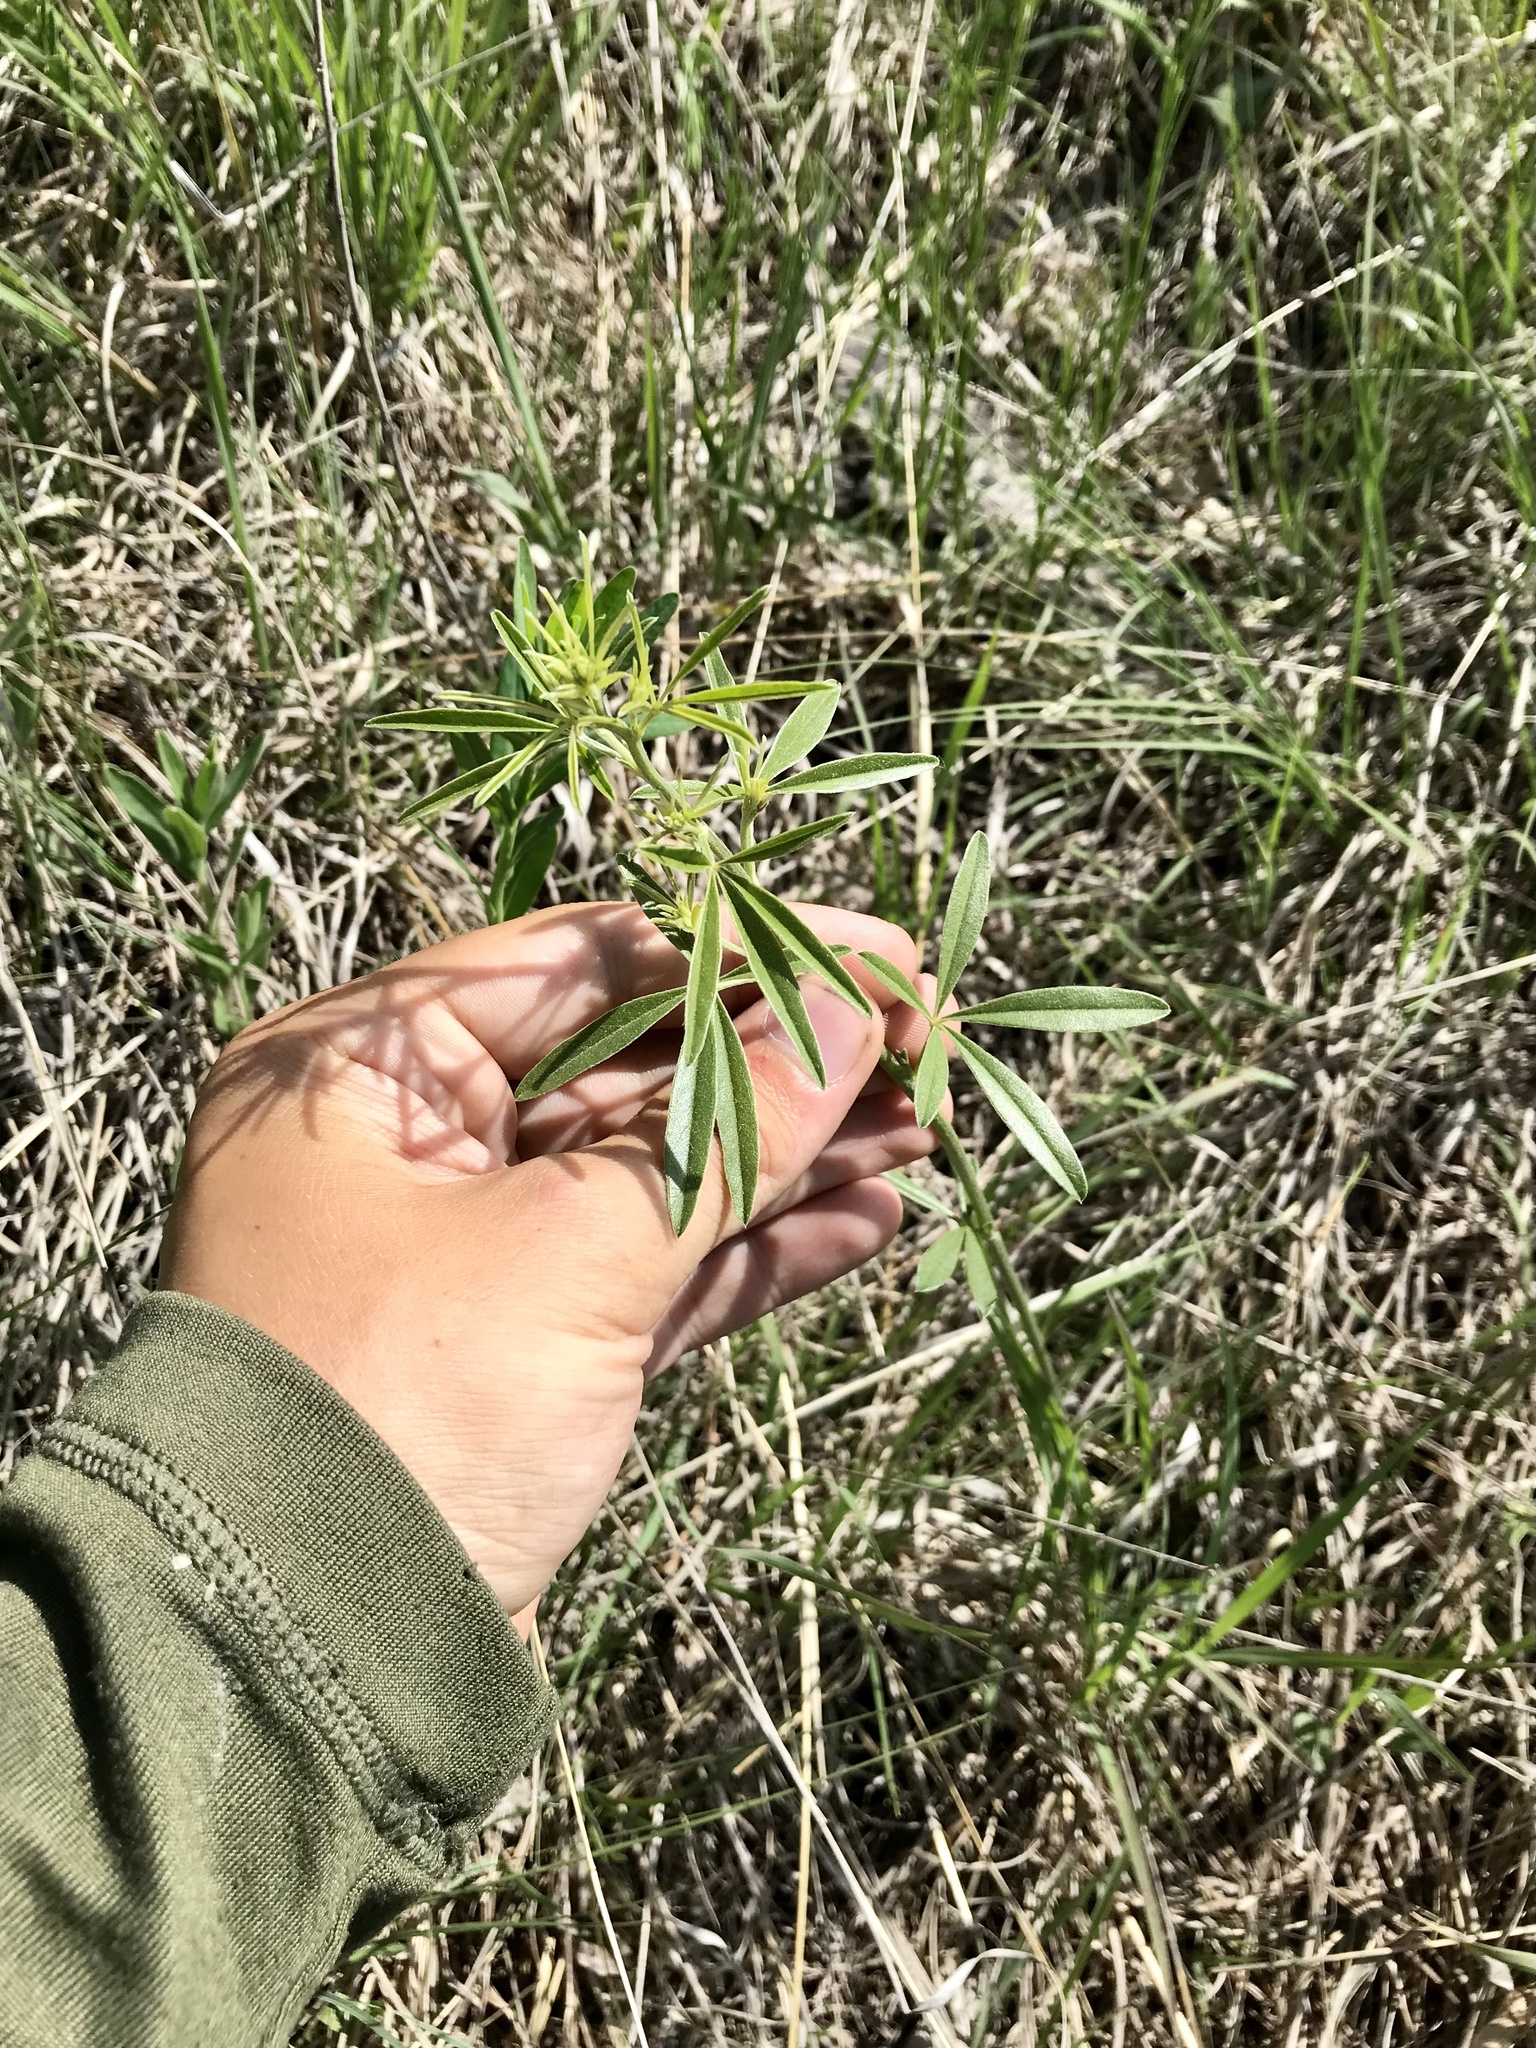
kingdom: Plantae
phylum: Tracheophyta
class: Magnoliopsida
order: Fabales
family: Fabaceae
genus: Pediomelum
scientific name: Pediomelum tenuiflorum
